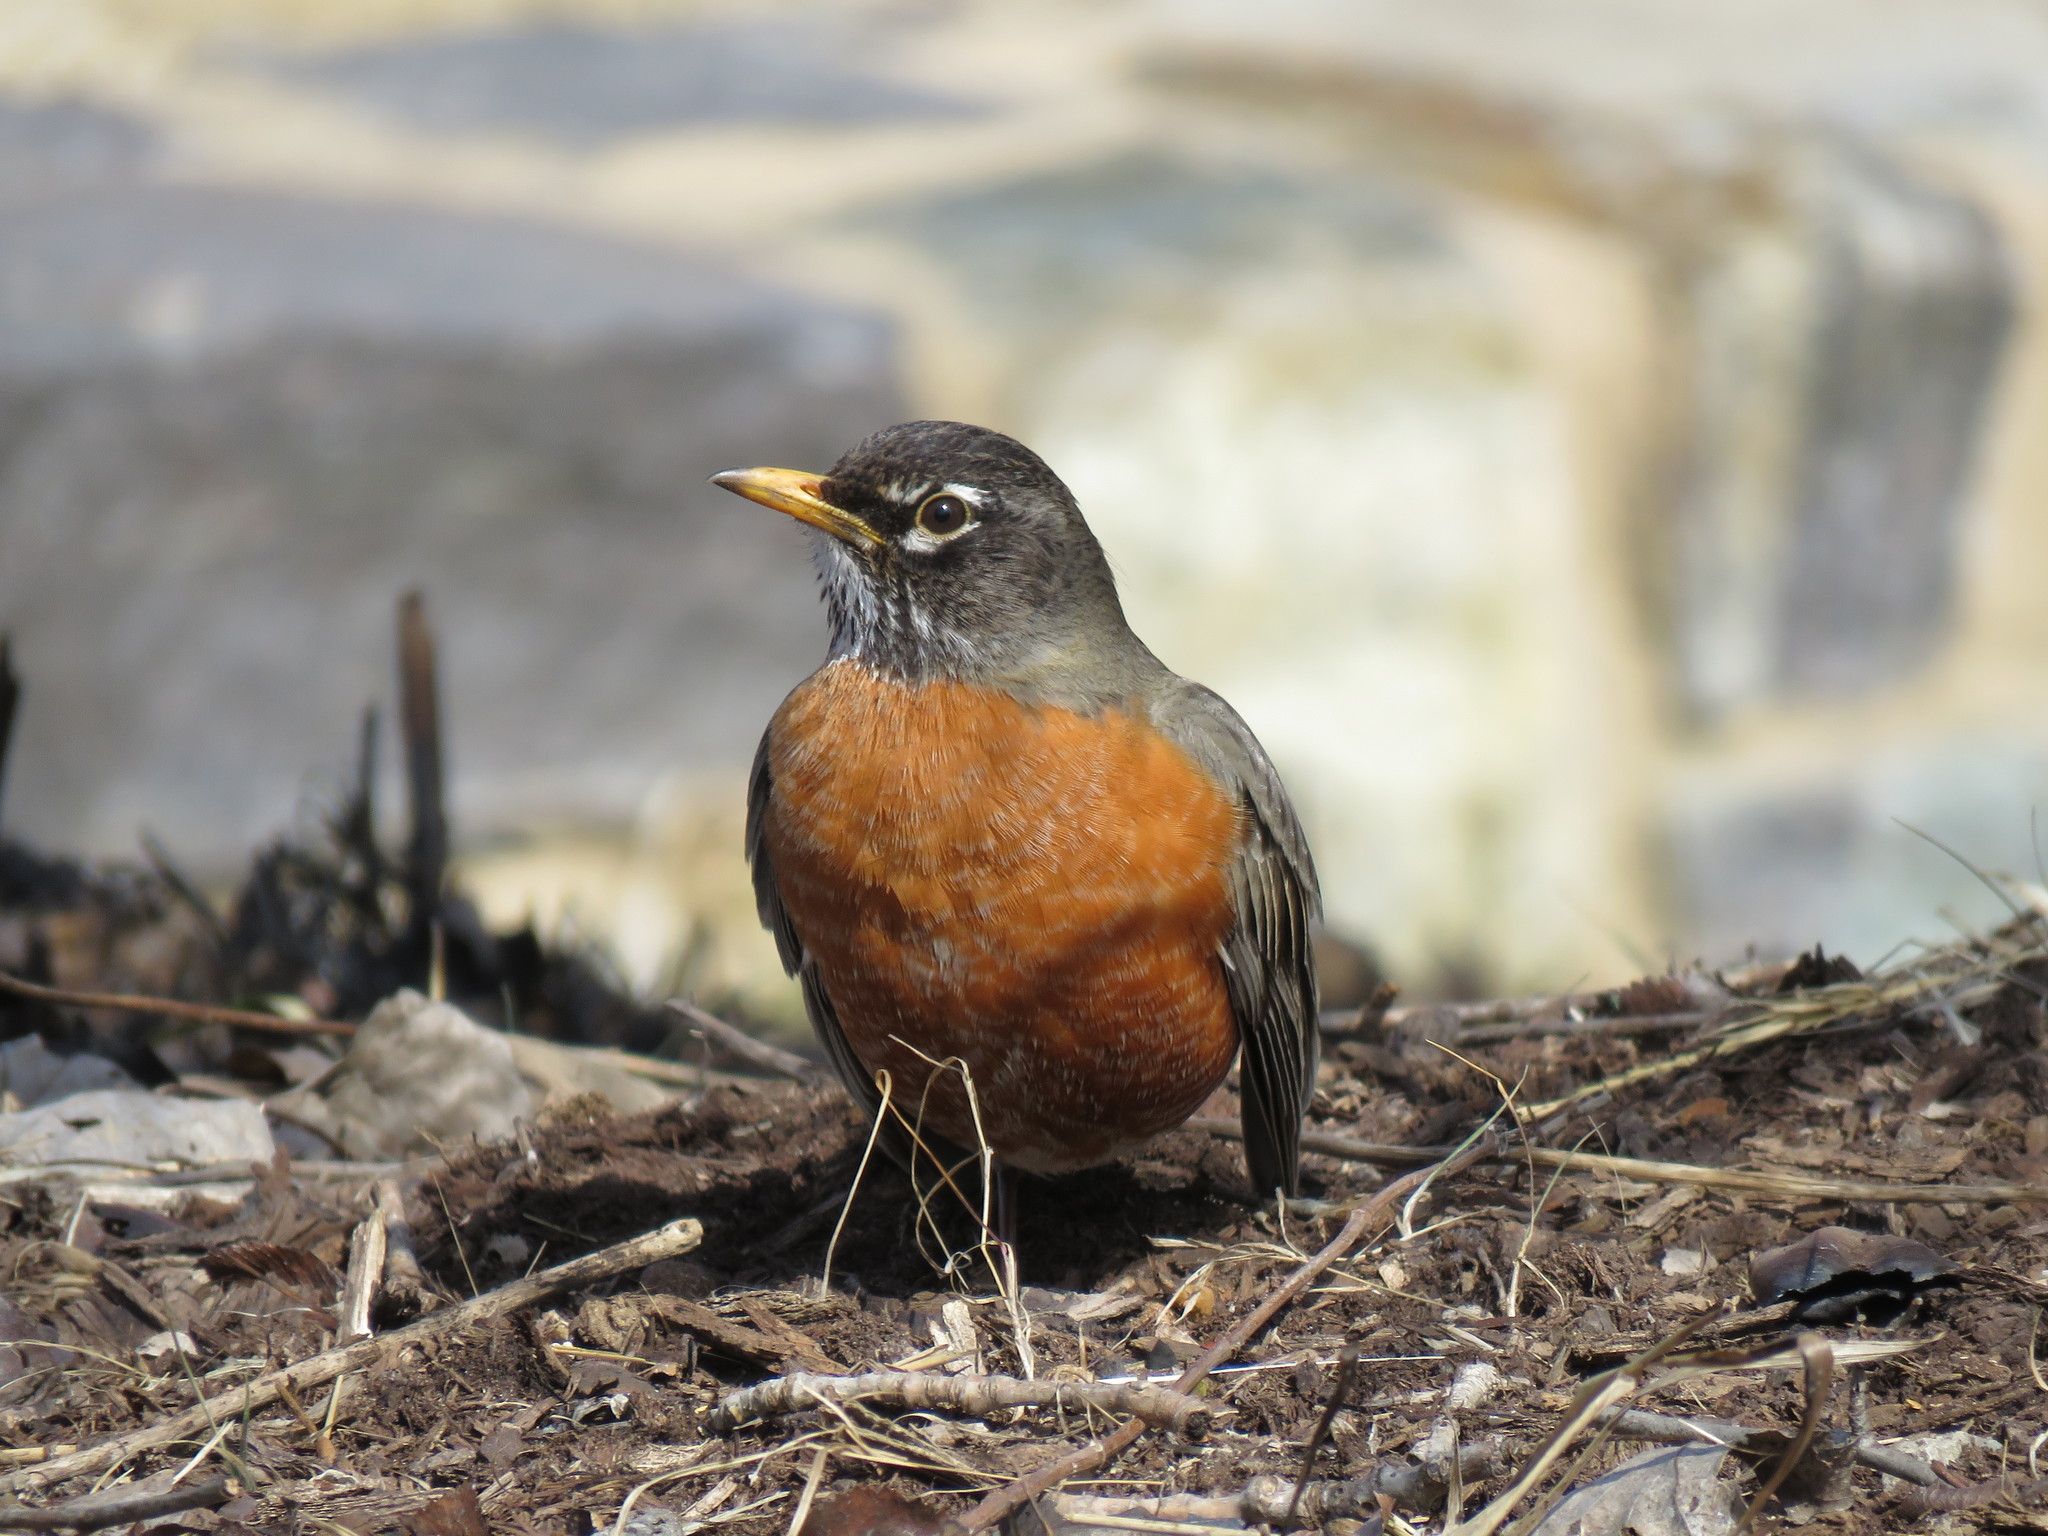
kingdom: Animalia
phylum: Chordata
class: Aves
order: Passeriformes
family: Turdidae
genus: Turdus
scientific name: Turdus migratorius
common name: American robin
